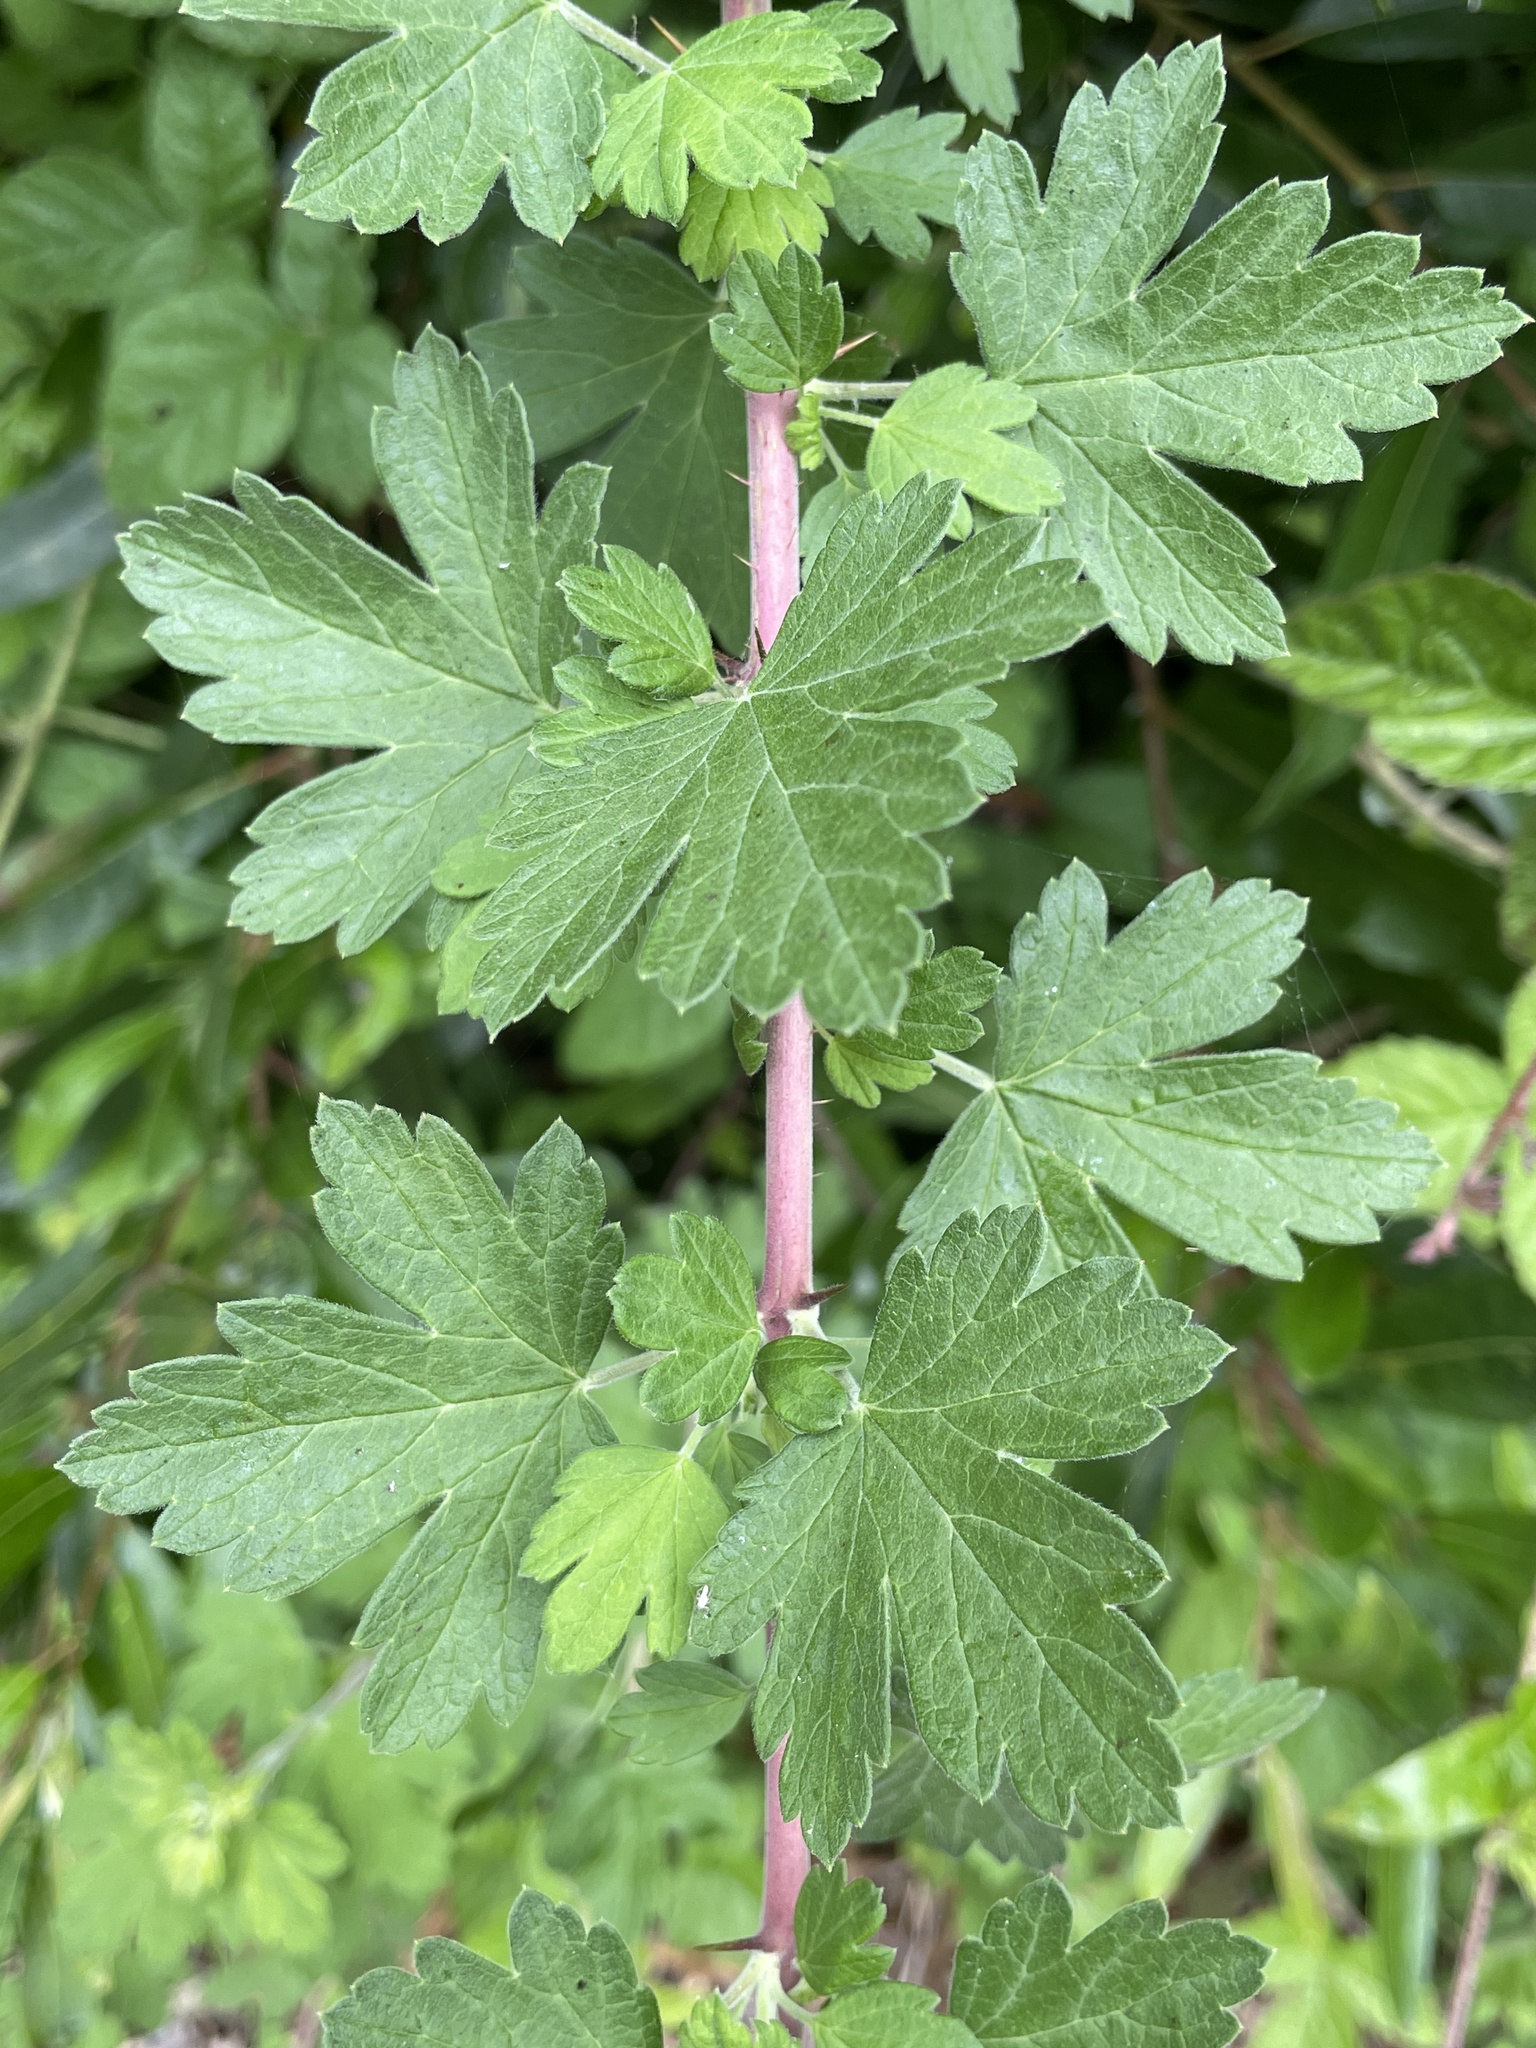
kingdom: Plantae
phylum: Tracheophyta
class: Magnoliopsida
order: Saxifragales
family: Grossulariaceae
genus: Ribes
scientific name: Ribes divaricatum
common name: Wild black gooseberry
